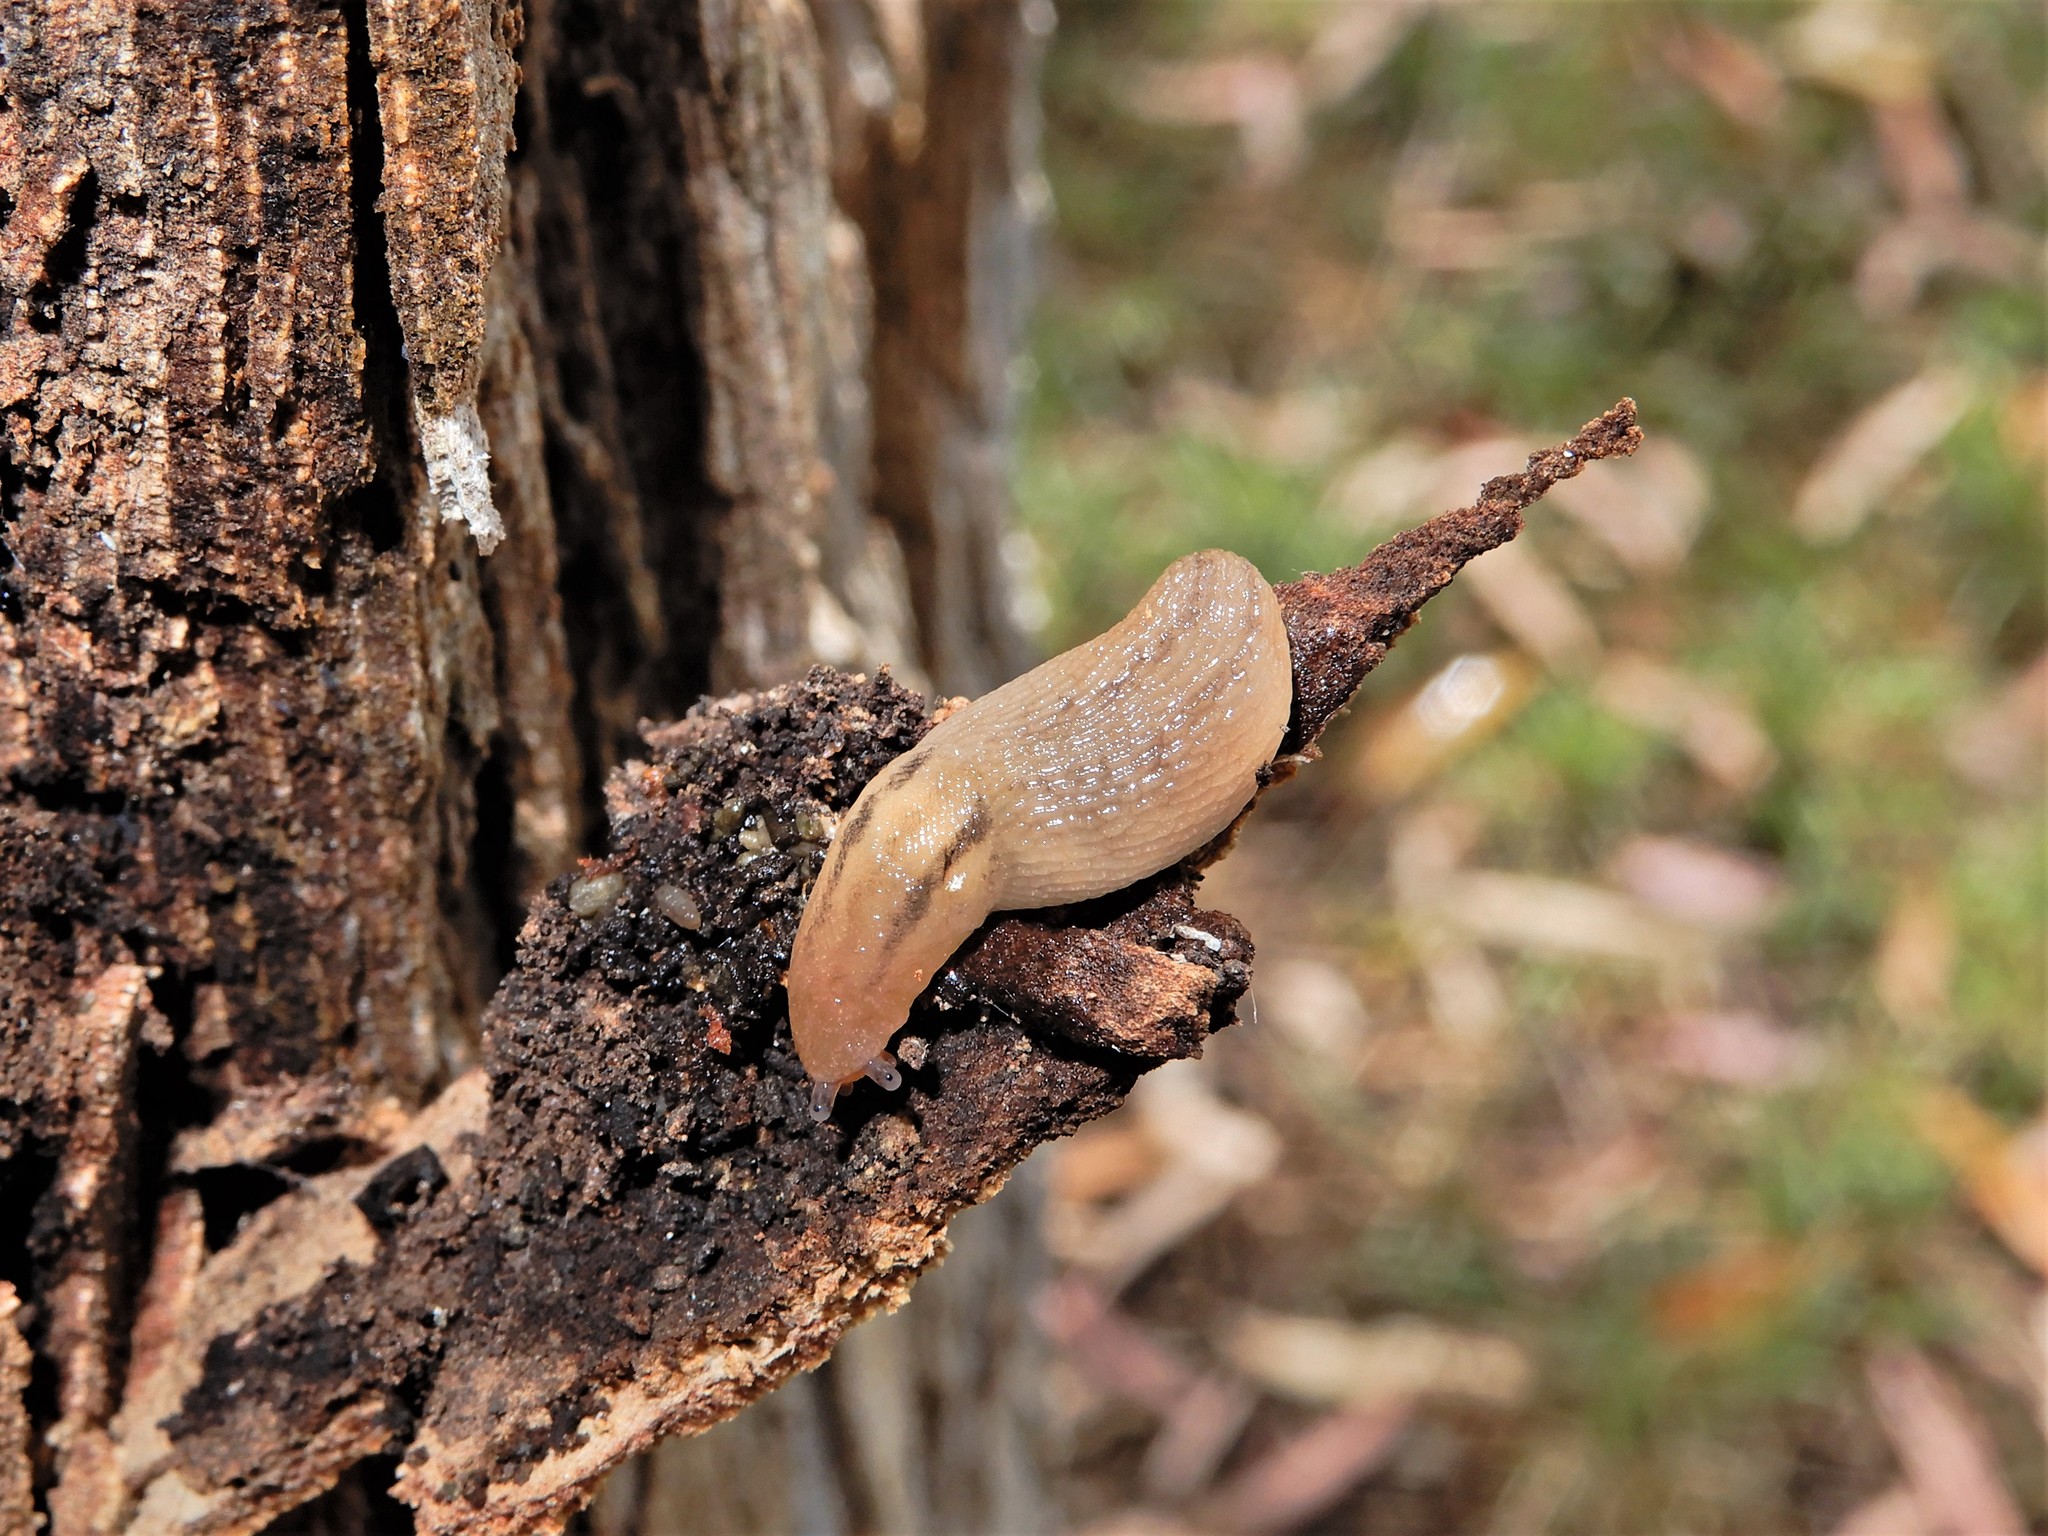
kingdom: Animalia
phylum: Mollusca
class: Gastropoda
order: Stylommatophora
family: Limacidae
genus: Ambigolimax
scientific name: Ambigolimax
